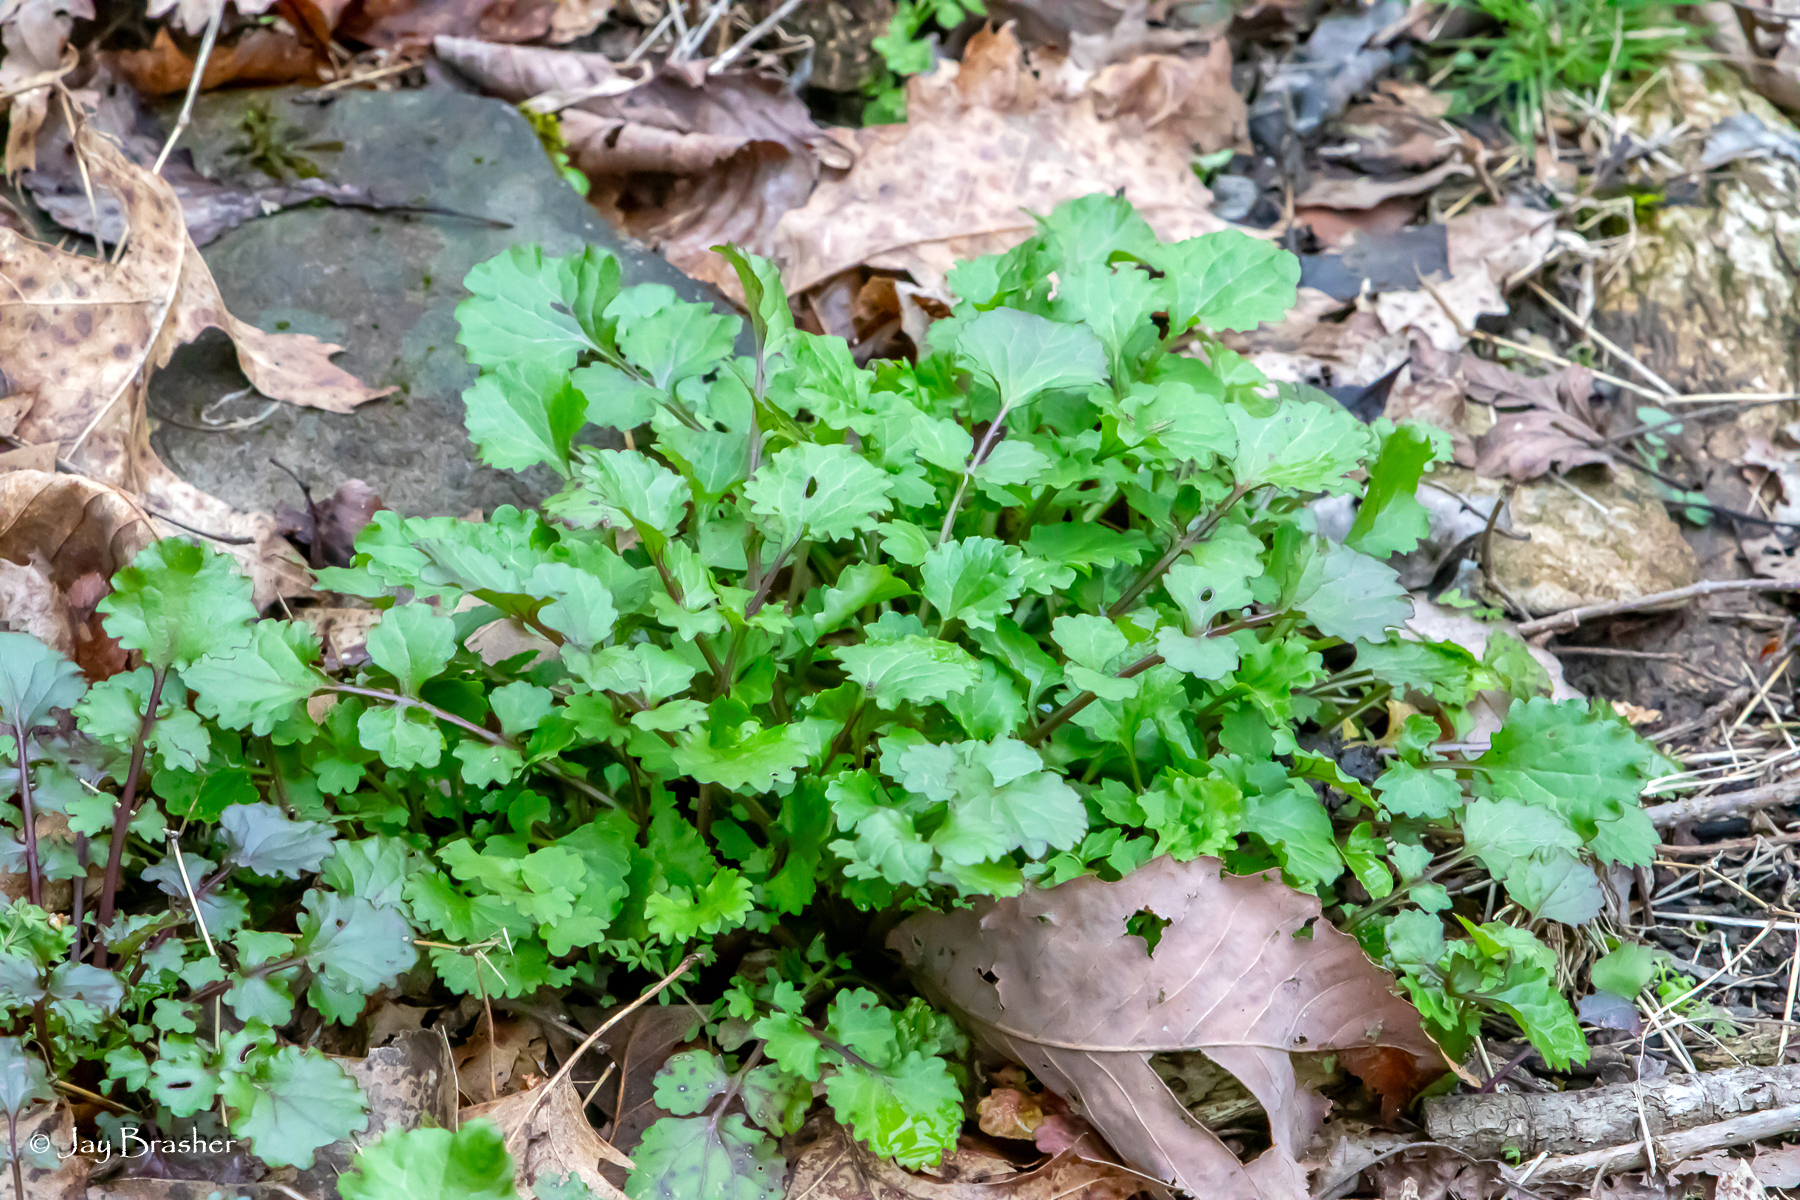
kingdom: Plantae
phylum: Tracheophyta
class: Magnoliopsida
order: Asterales
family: Asteraceae
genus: Packera
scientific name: Packera glabella
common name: Butterweed
